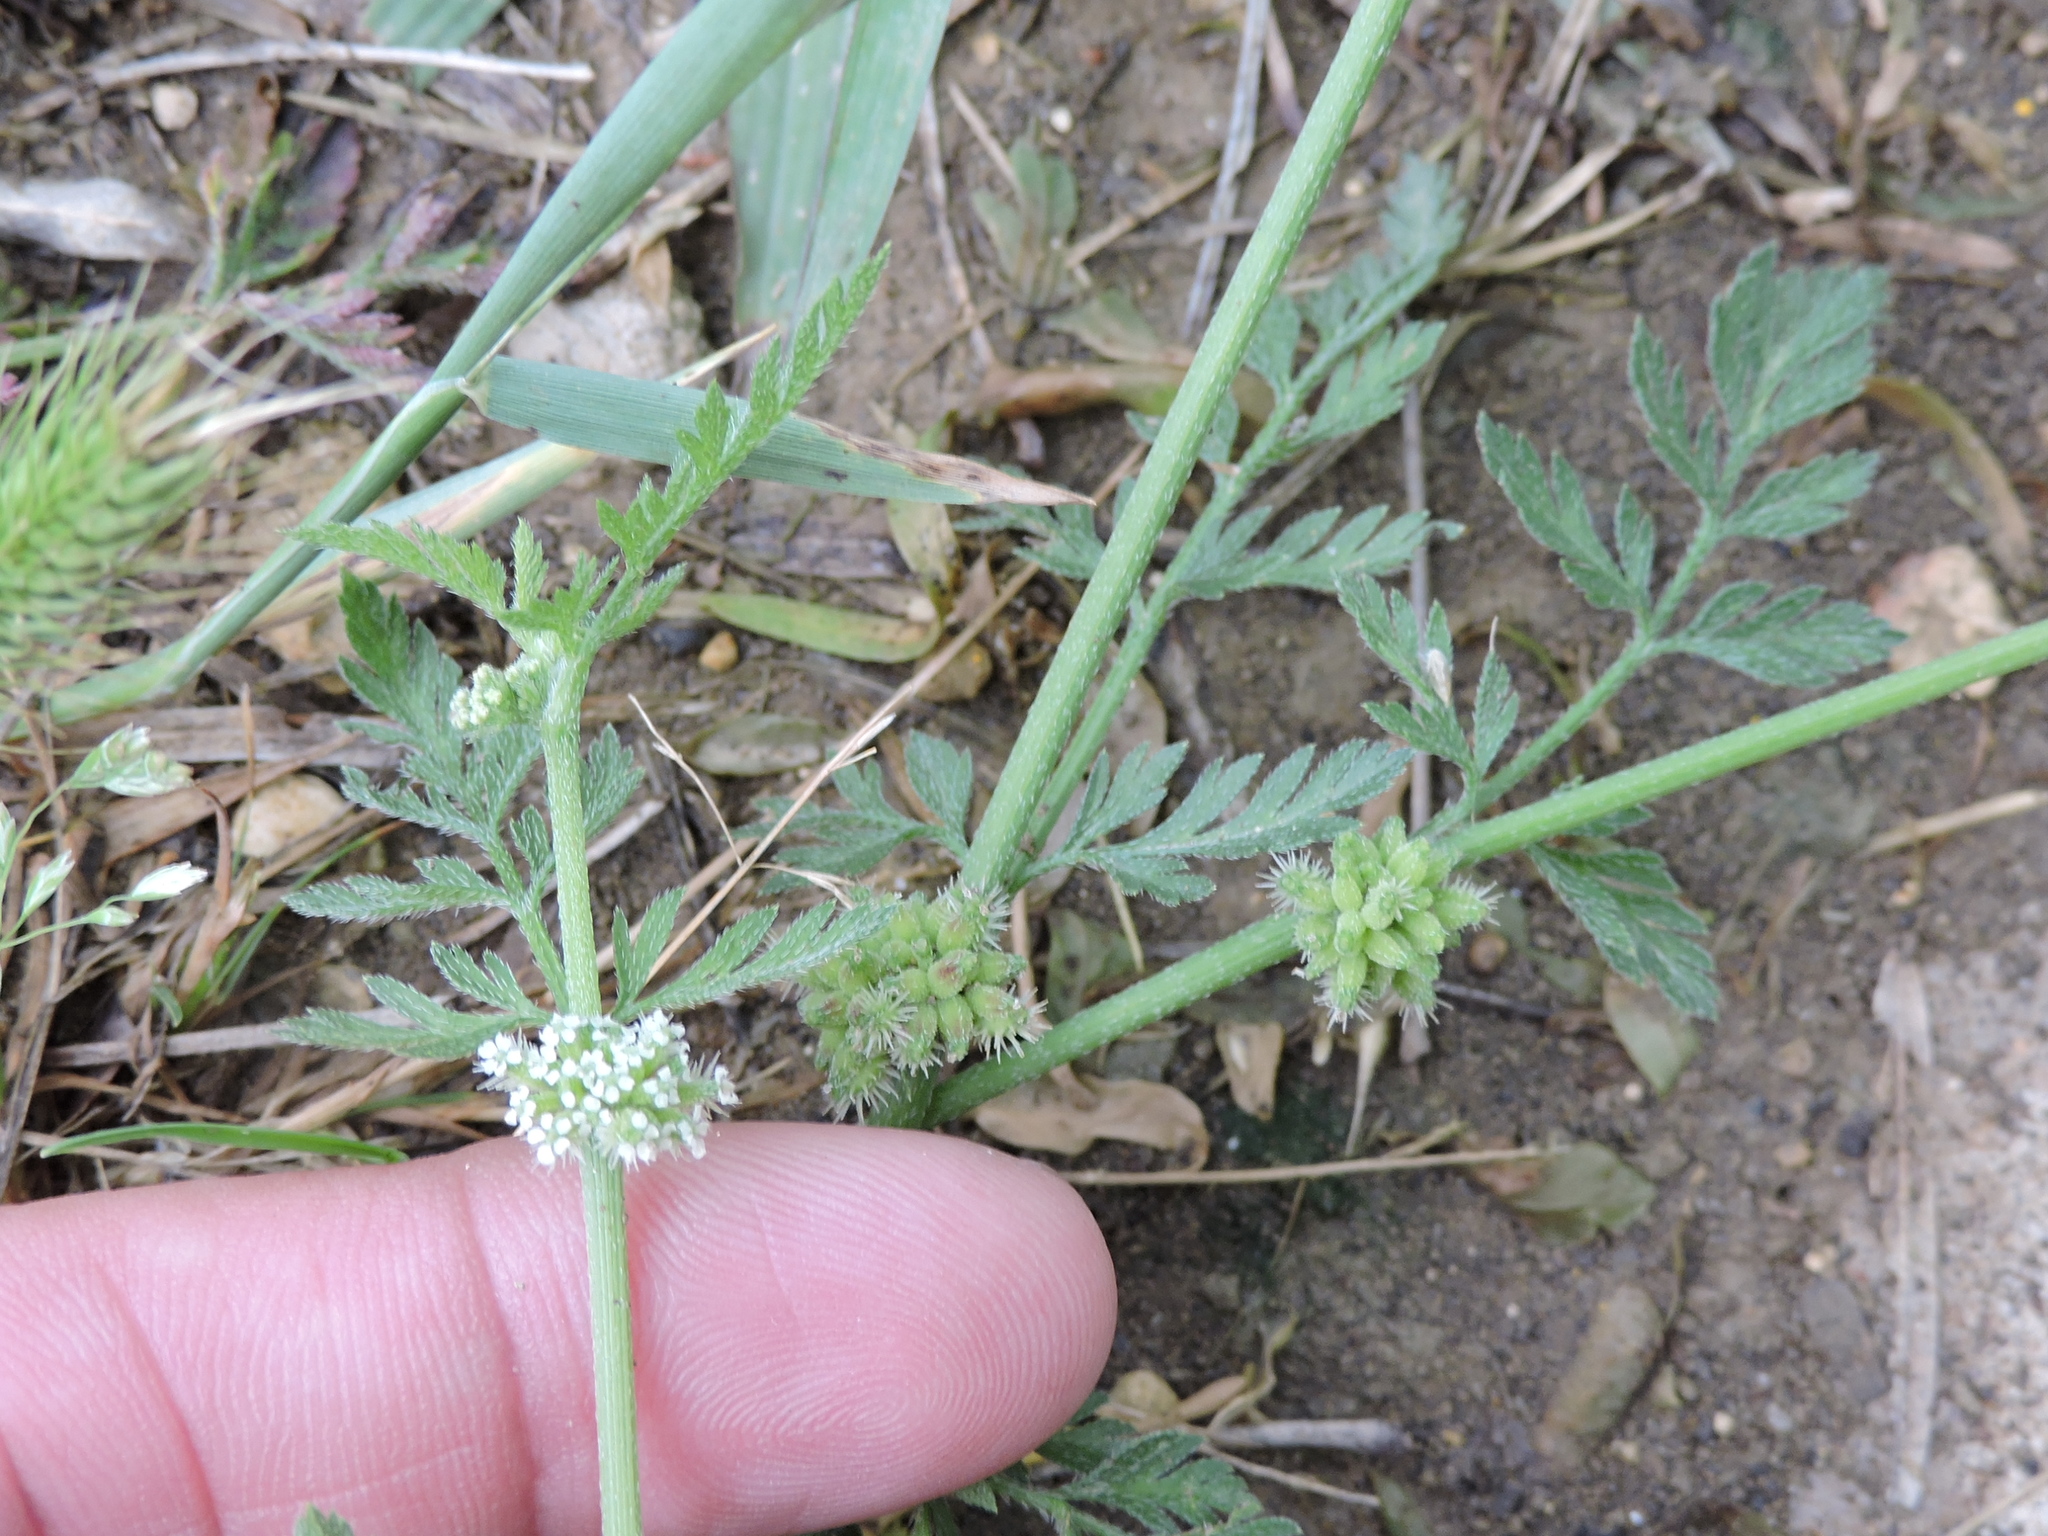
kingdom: Plantae
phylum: Tracheophyta
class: Magnoliopsida
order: Apiales
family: Apiaceae
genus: Torilis
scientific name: Torilis nodosa
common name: Knotted hedge-parsley
